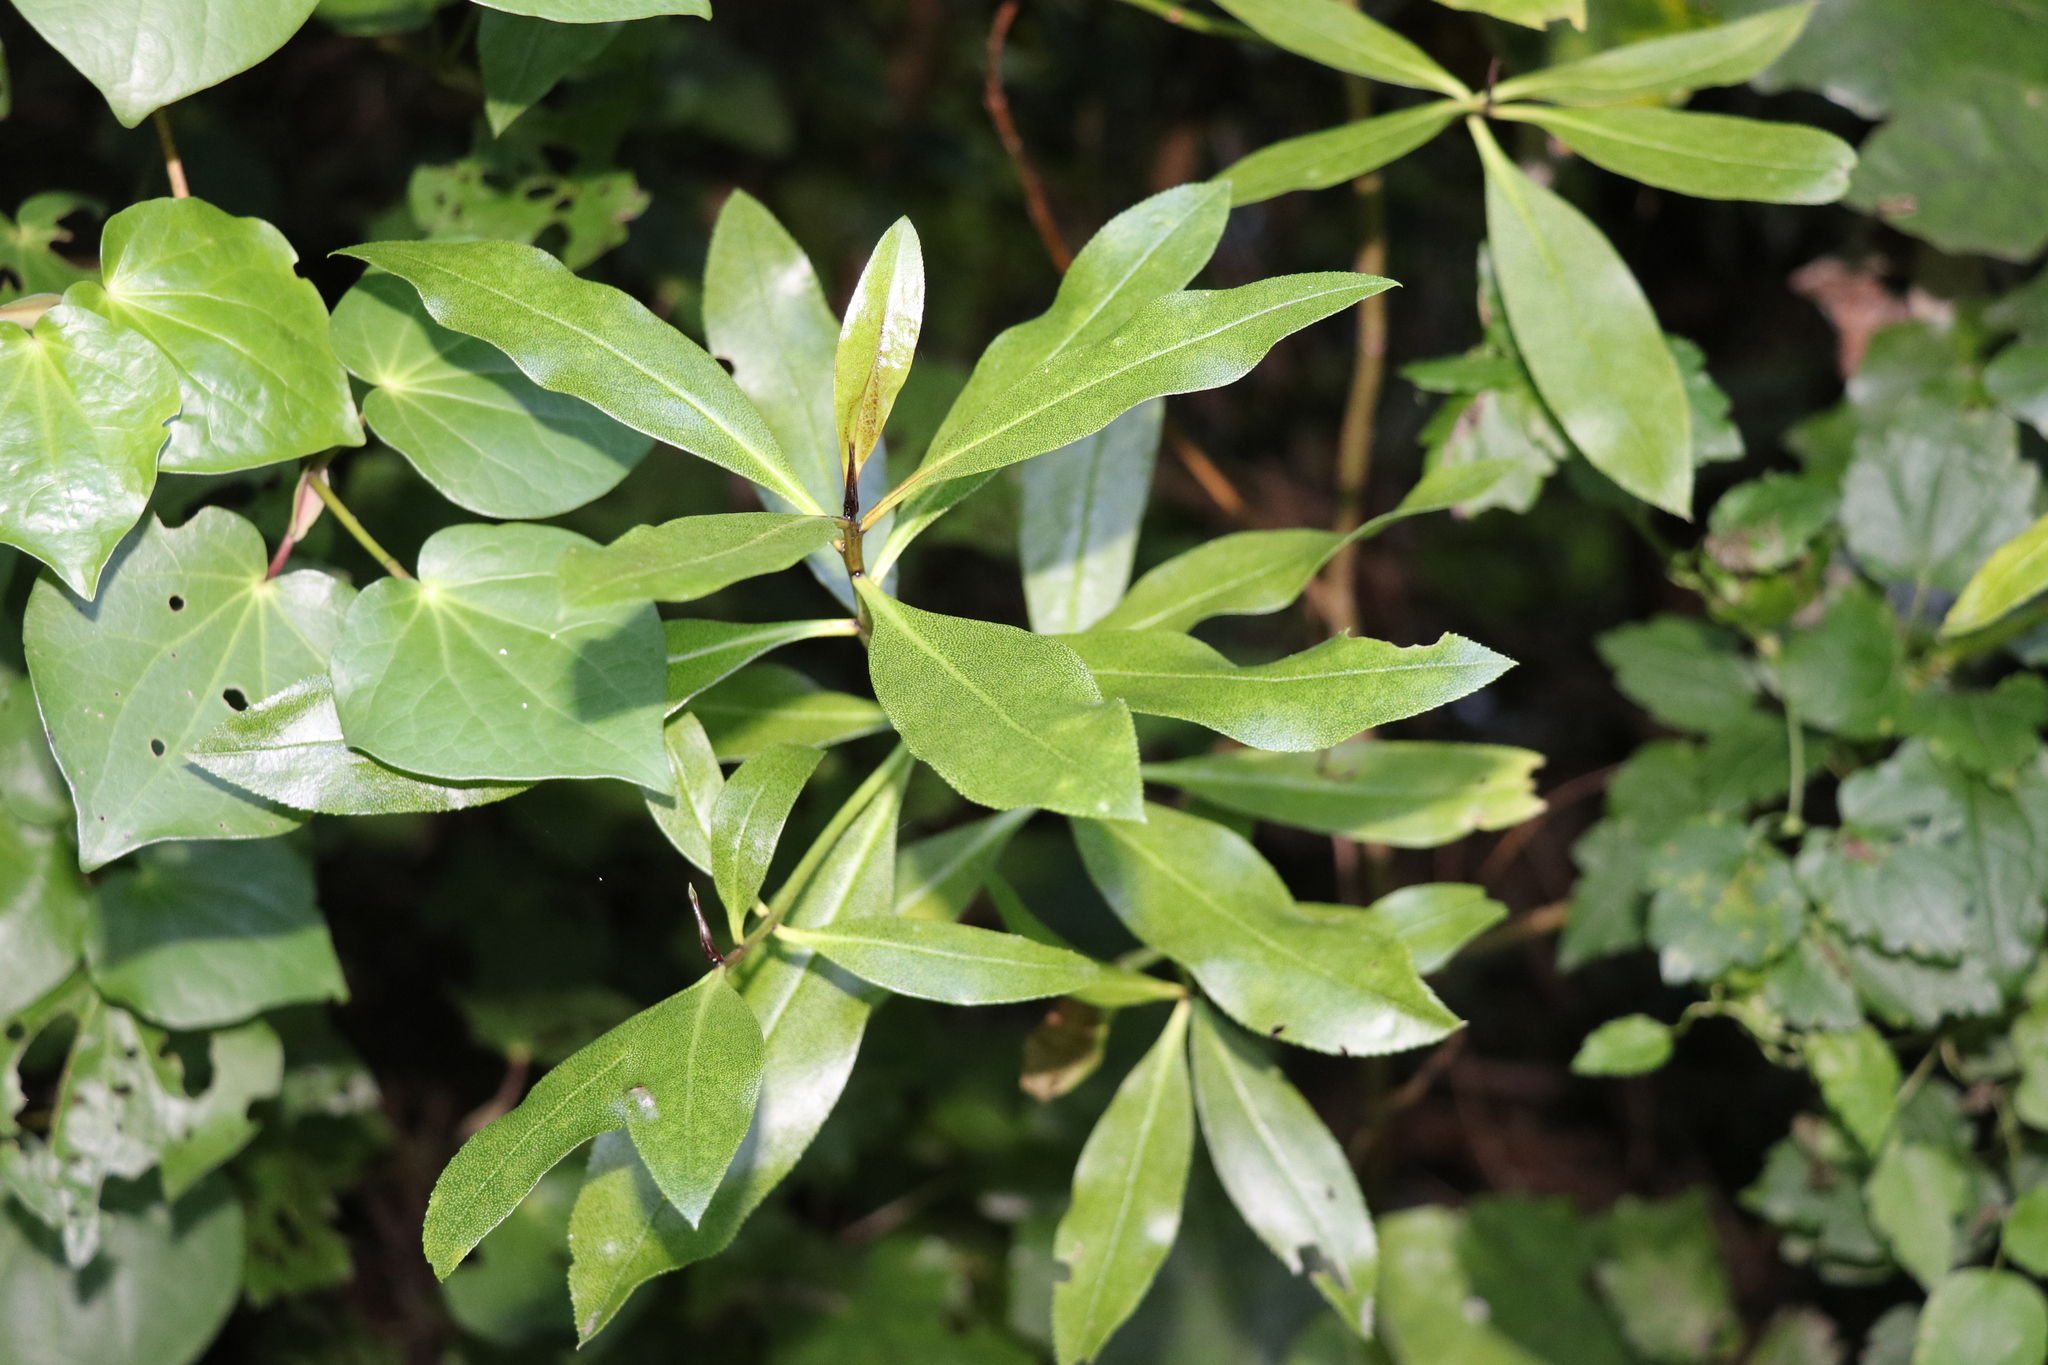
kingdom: Plantae
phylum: Tracheophyta
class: Magnoliopsida
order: Lamiales
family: Scrophulariaceae
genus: Myoporum
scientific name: Myoporum laetum
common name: Ngaio tree
